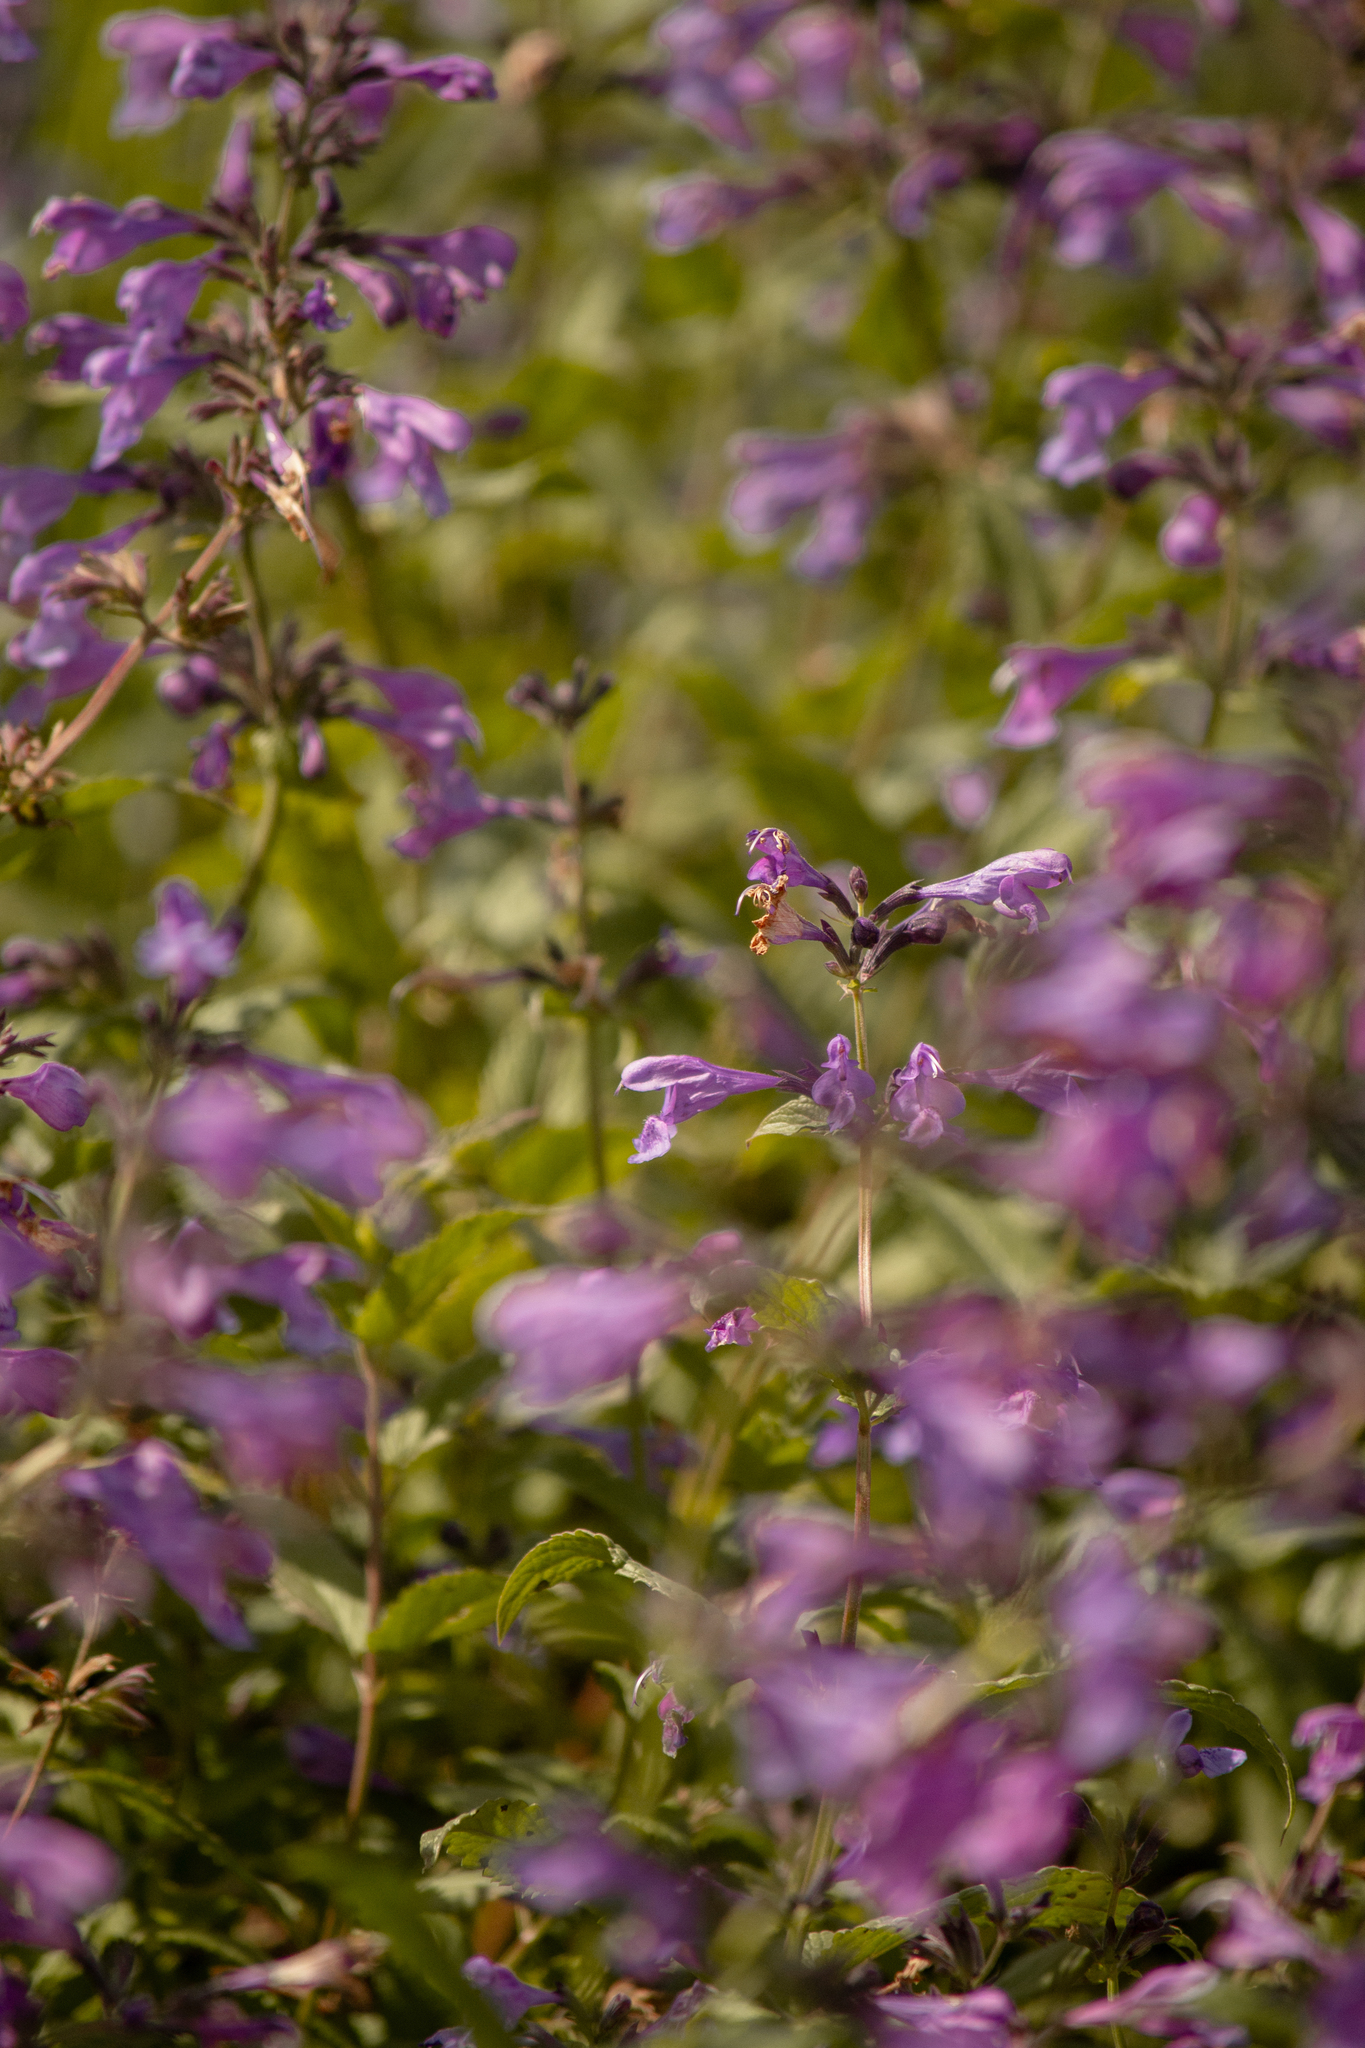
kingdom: Plantae
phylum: Tracheophyta
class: Magnoliopsida
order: Lamiales
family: Lamiaceae
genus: Nepeta
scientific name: Nepeta sibirica
